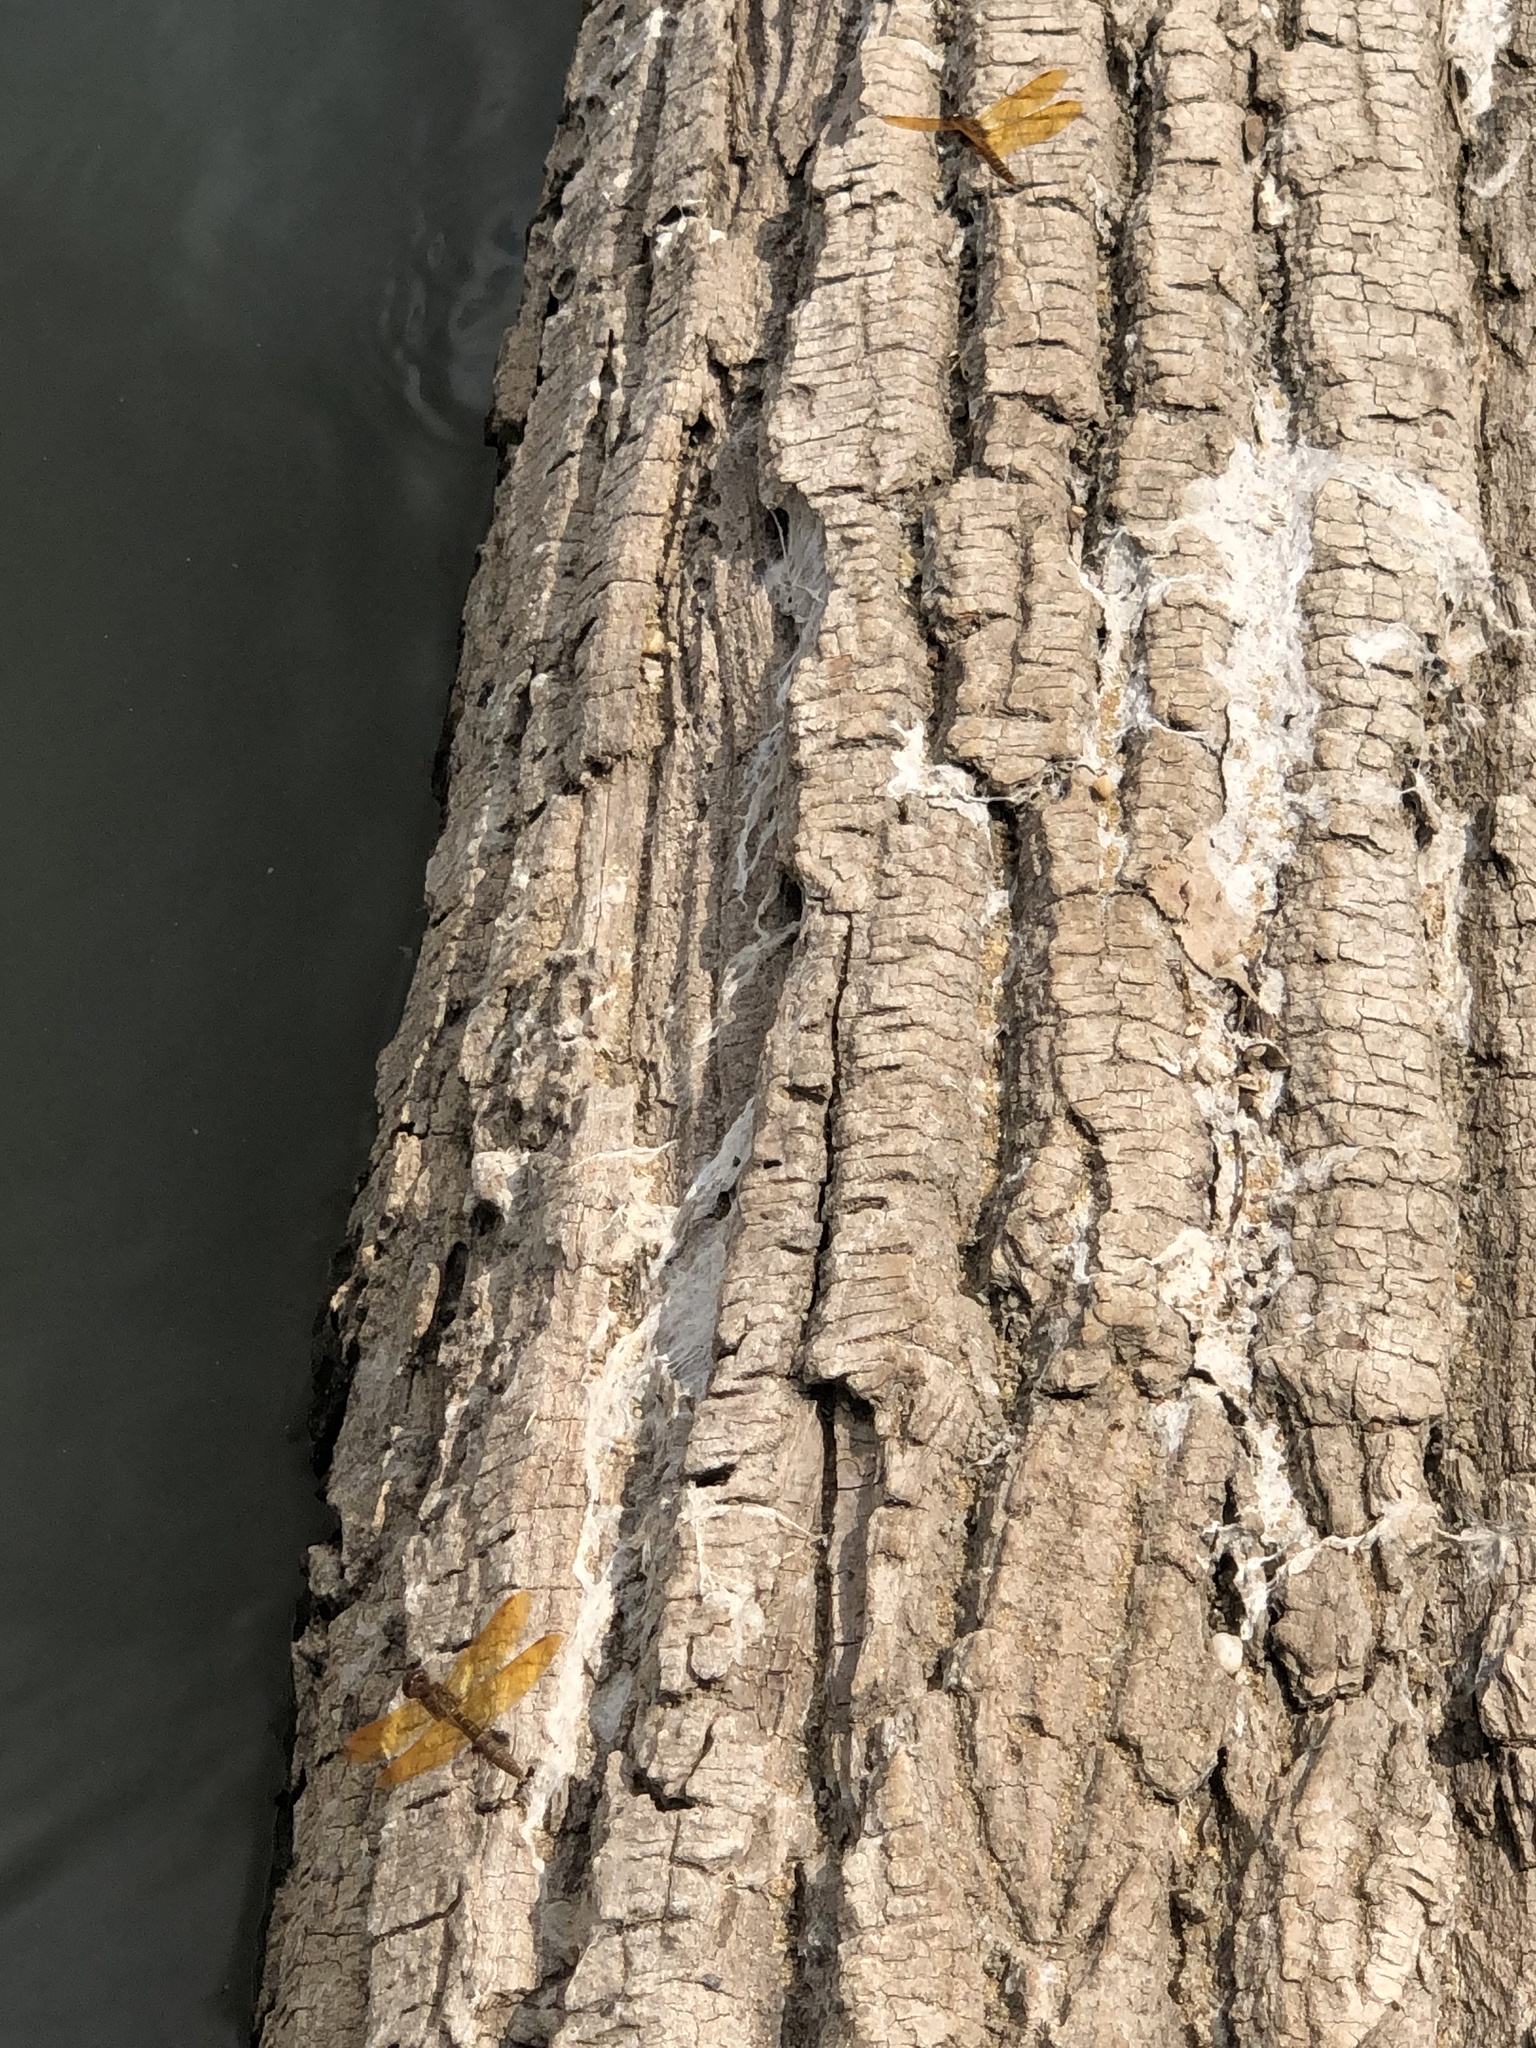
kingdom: Animalia
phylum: Arthropoda
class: Insecta
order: Odonata
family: Libellulidae
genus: Perithemis
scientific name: Perithemis tenera
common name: Eastern amberwing
